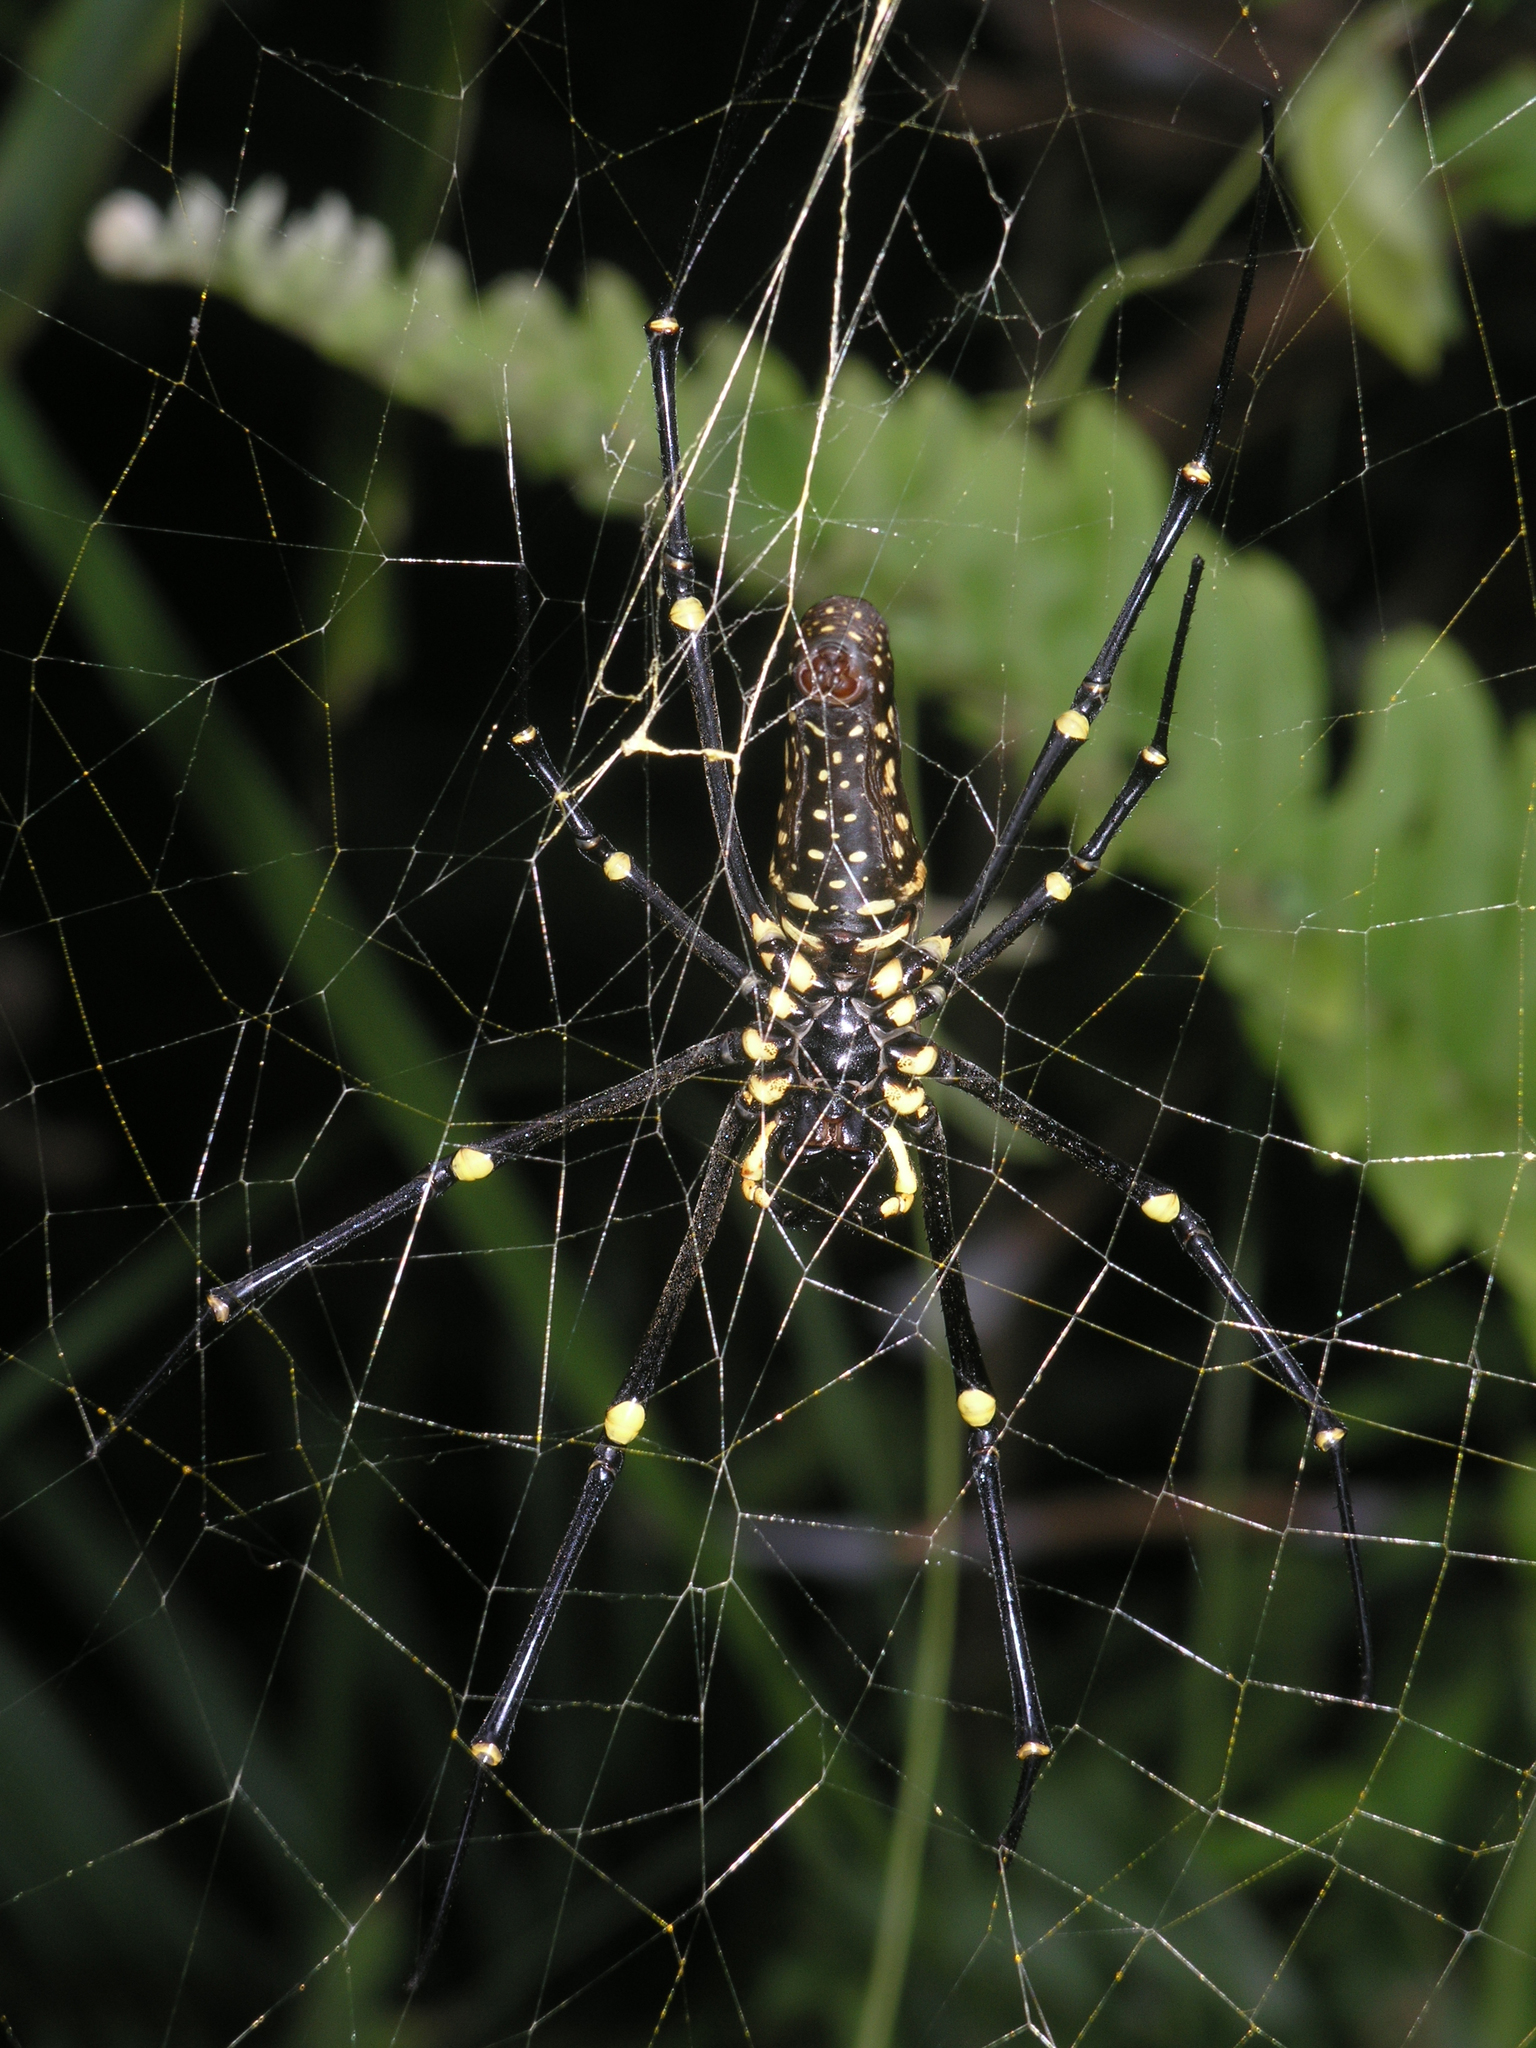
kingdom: Animalia
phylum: Arthropoda
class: Arachnida
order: Araneae
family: Araneidae
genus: Nephila
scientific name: Nephila pilipes
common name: Giant golden orb weaver
